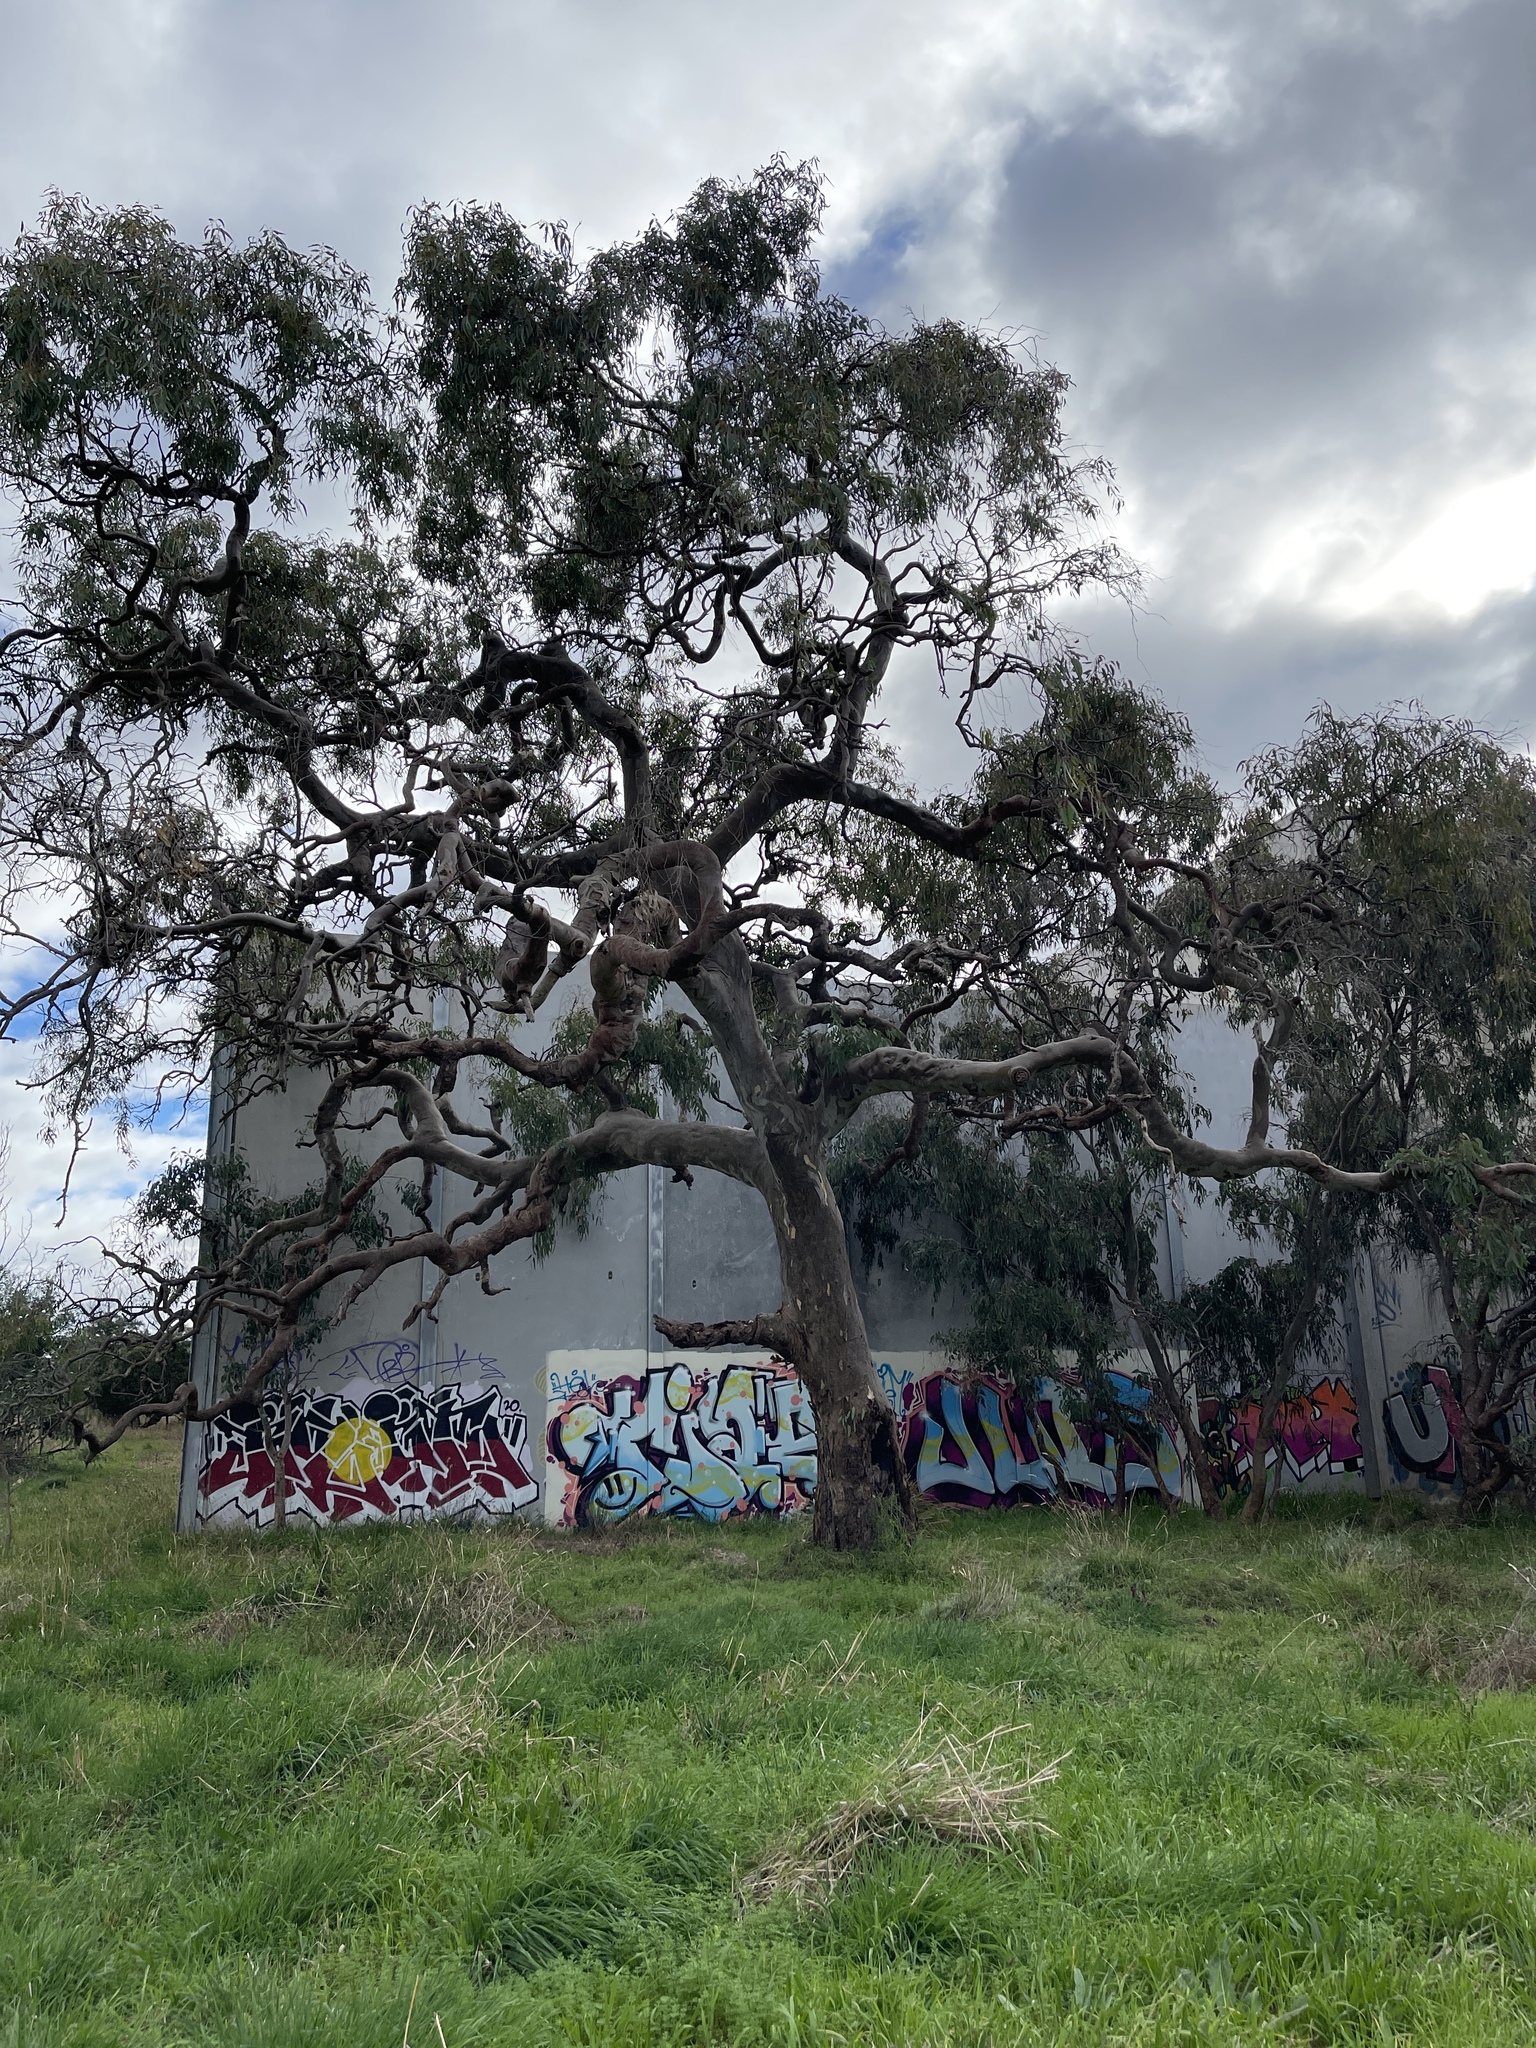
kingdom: Plantae
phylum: Tracheophyta
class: Magnoliopsida
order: Myrtales
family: Myrtaceae
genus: Eucalyptus
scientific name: Eucalyptus camaldulensis
